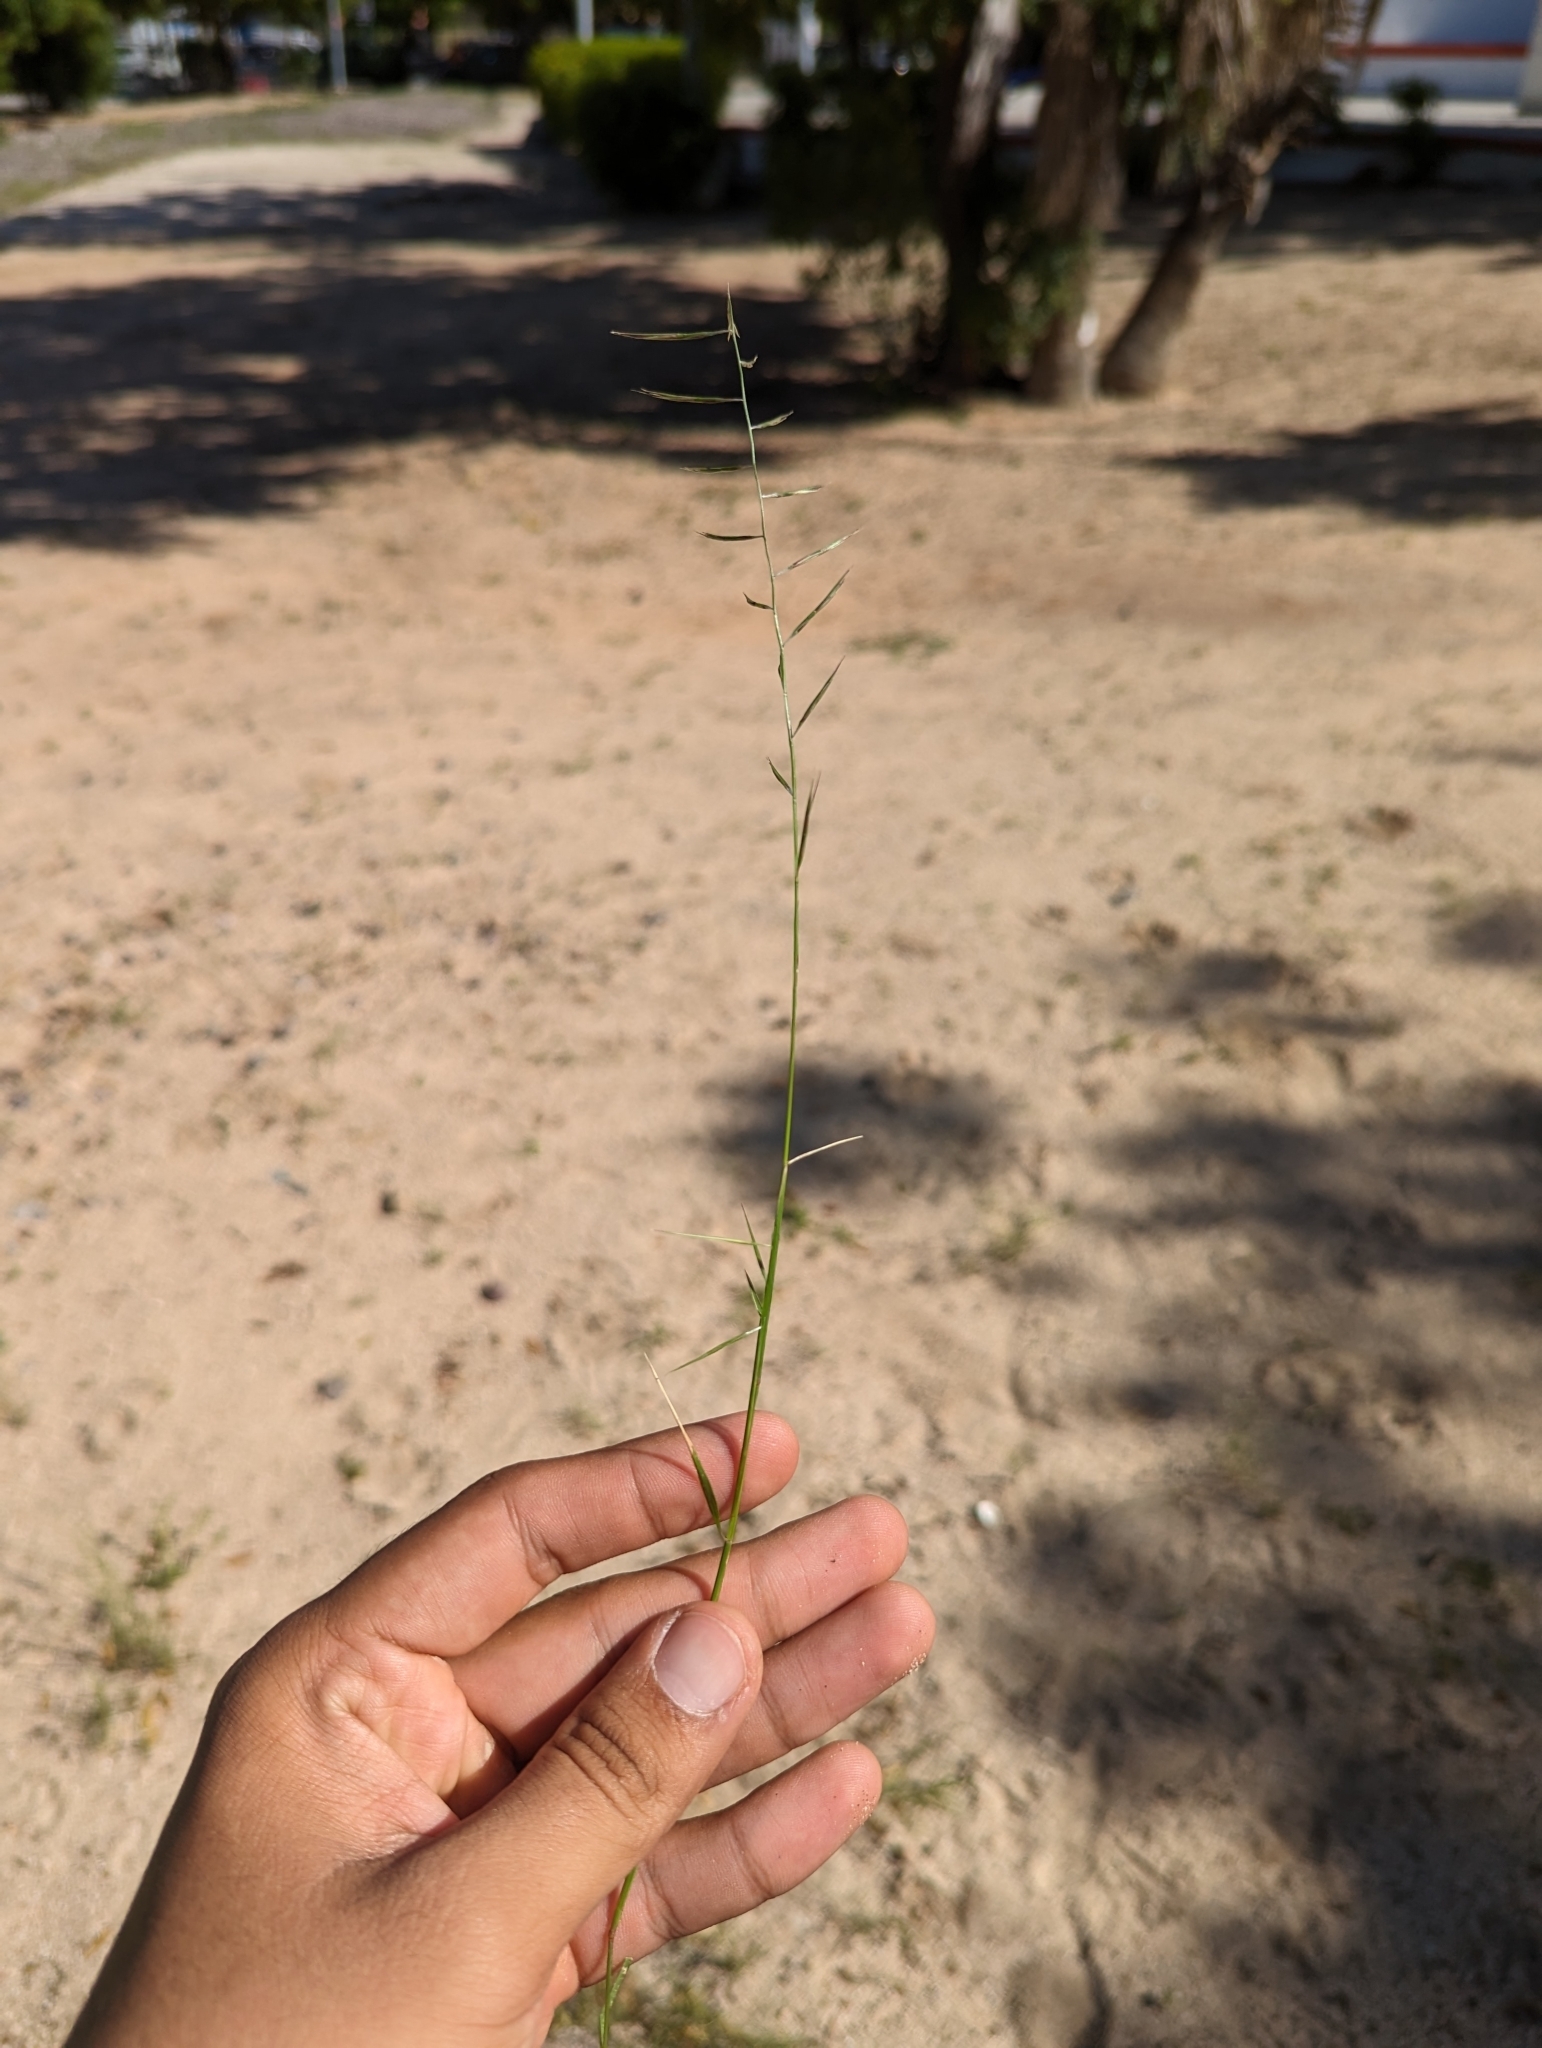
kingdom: Plantae
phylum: Tracheophyta
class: Liliopsida
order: Poales
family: Poaceae
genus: Bouteloua
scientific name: Bouteloua aristidoides
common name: Needle grama
